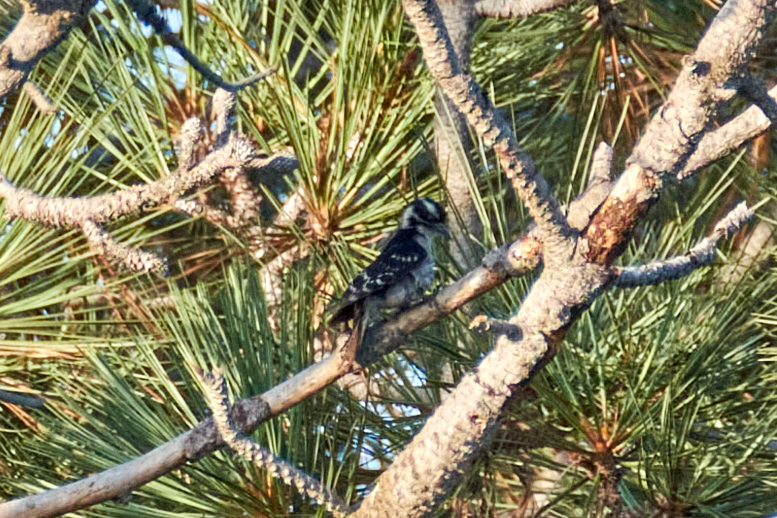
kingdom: Animalia
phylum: Chordata
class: Aves
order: Piciformes
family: Picidae
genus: Dryobates
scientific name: Dryobates pubescens
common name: Downy woodpecker
